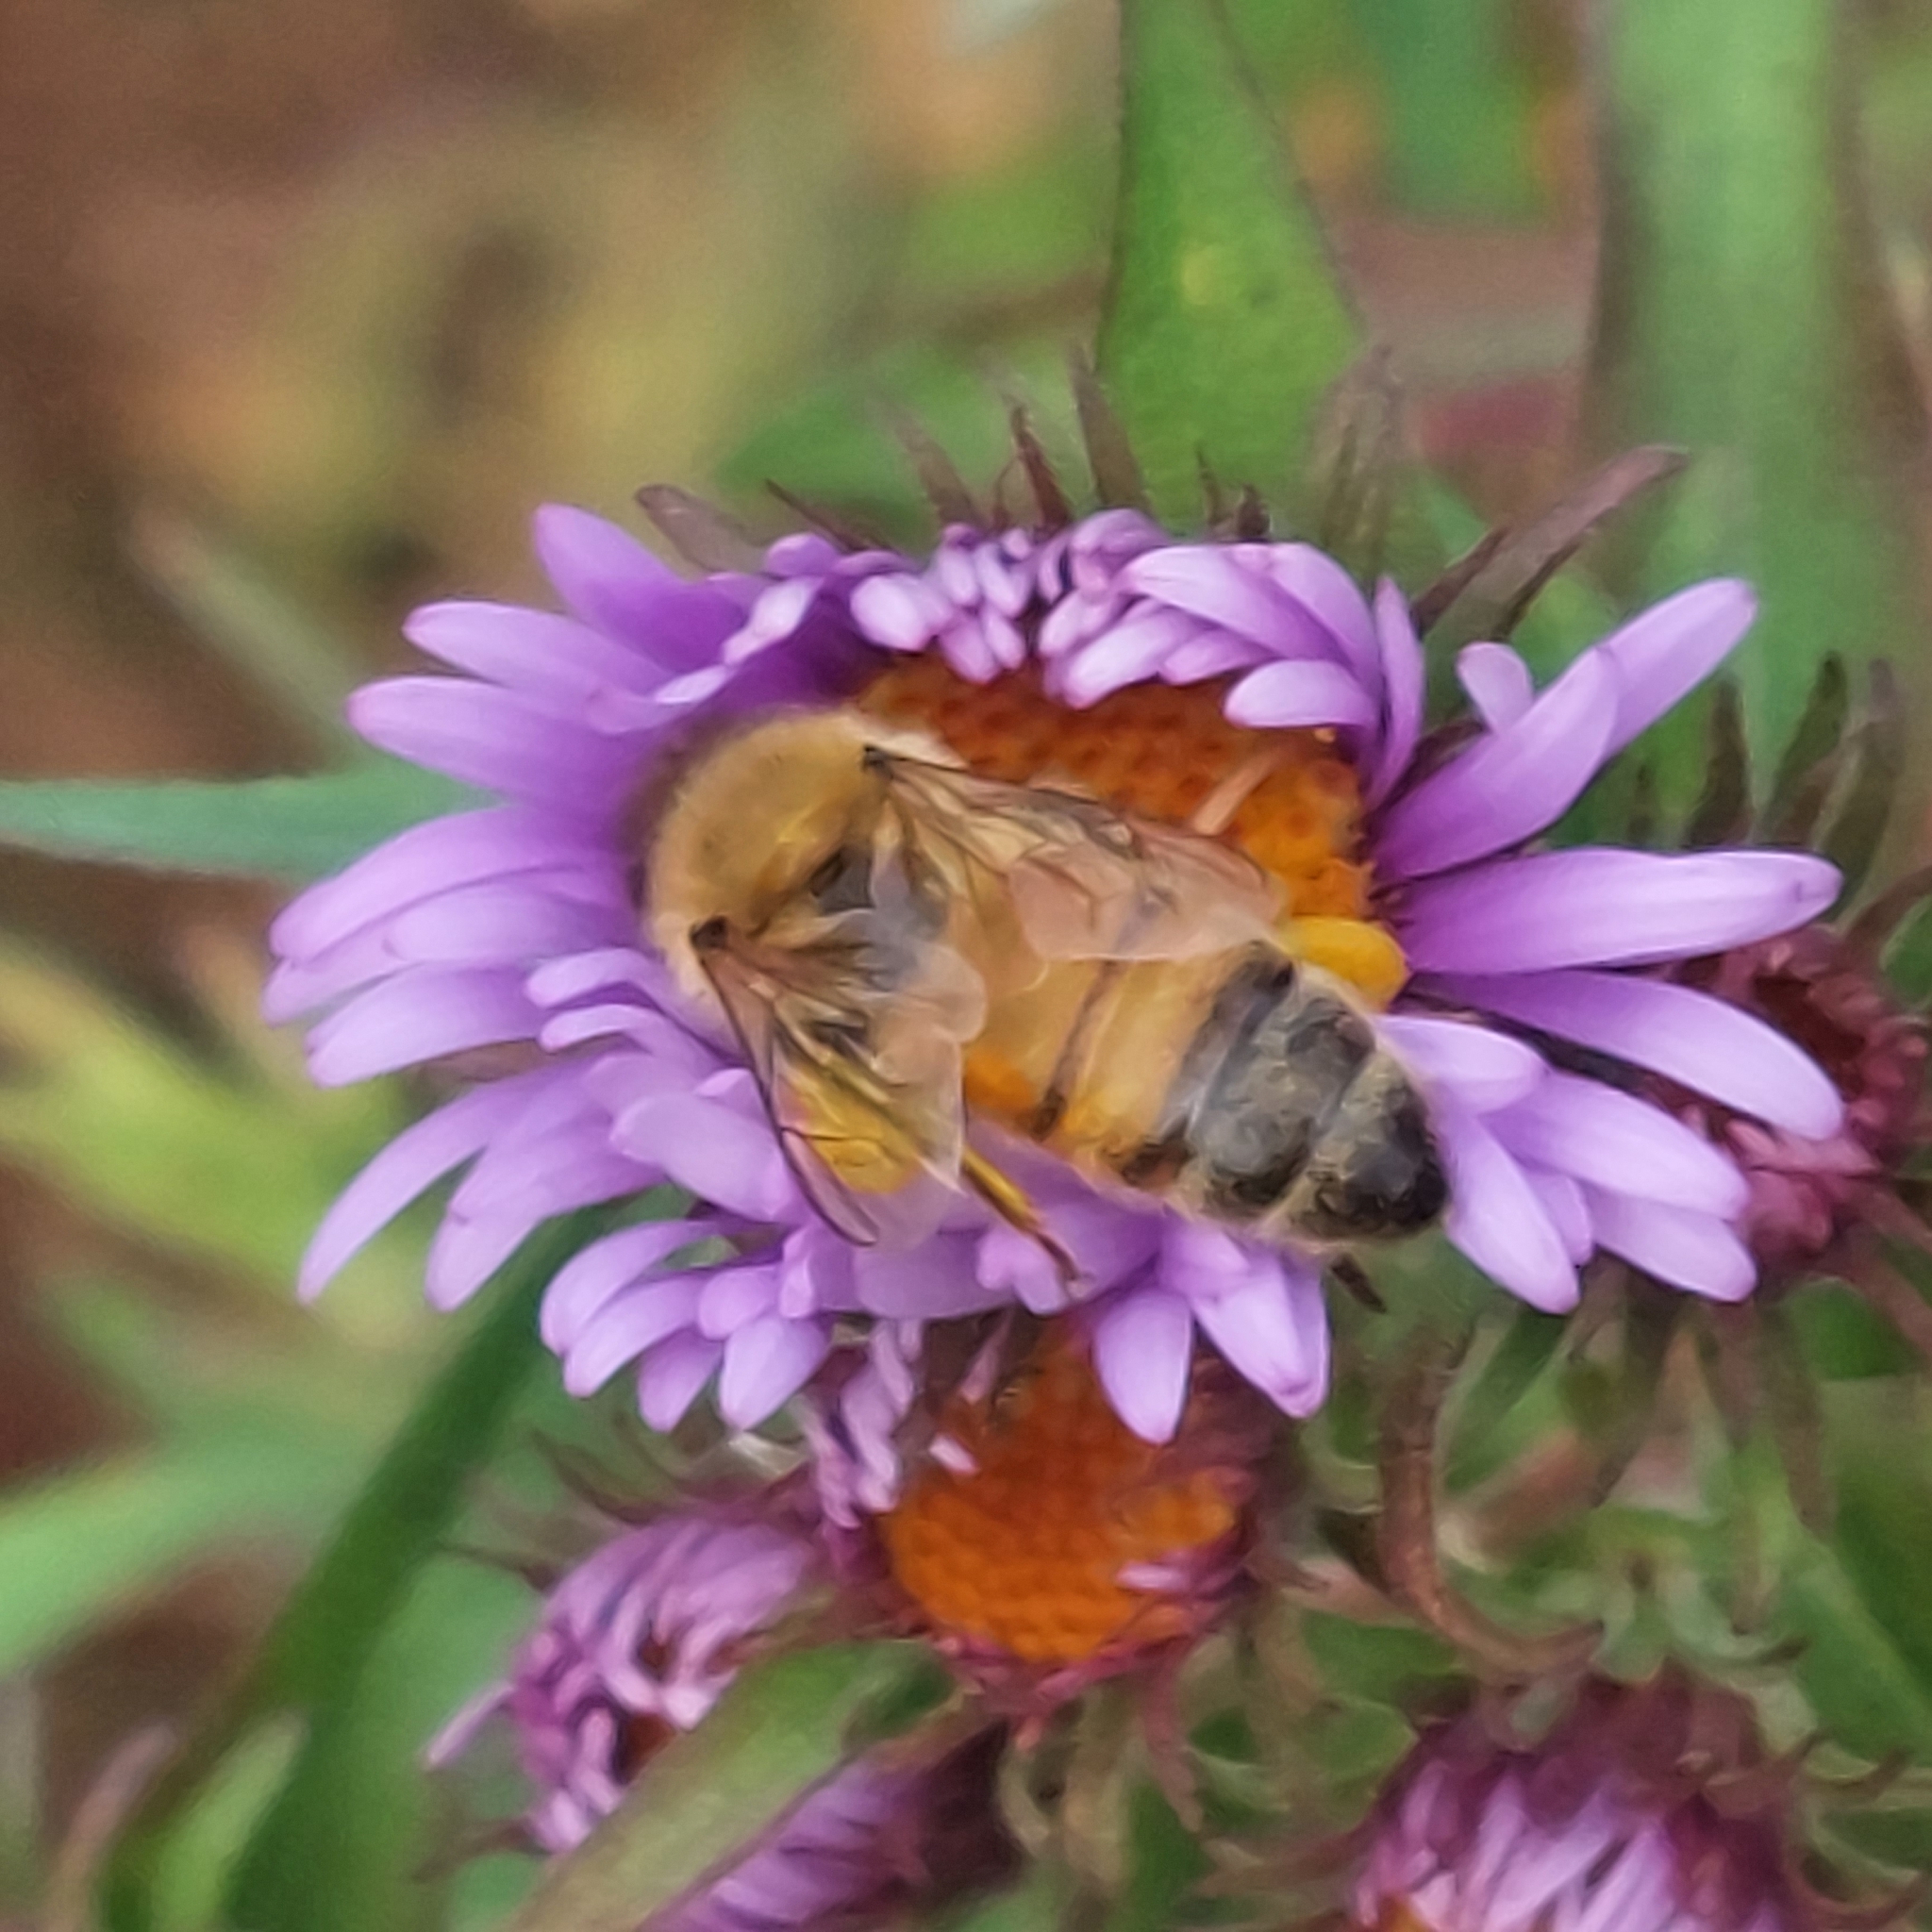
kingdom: Animalia
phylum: Arthropoda
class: Insecta
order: Hymenoptera
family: Apidae
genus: Apis
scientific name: Apis mellifera
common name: Honey bee
